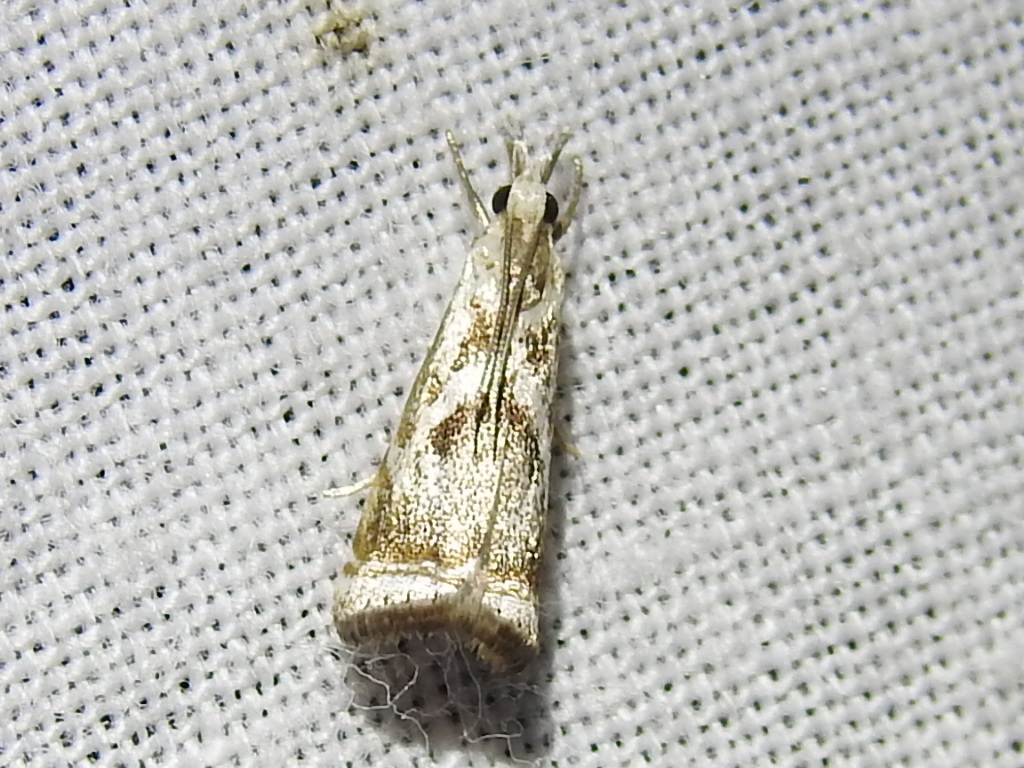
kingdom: Animalia
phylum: Arthropoda
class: Insecta
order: Lepidoptera
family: Crambidae
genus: Microcrambus
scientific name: Microcrambus elegans
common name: Elegant grass-veneer
